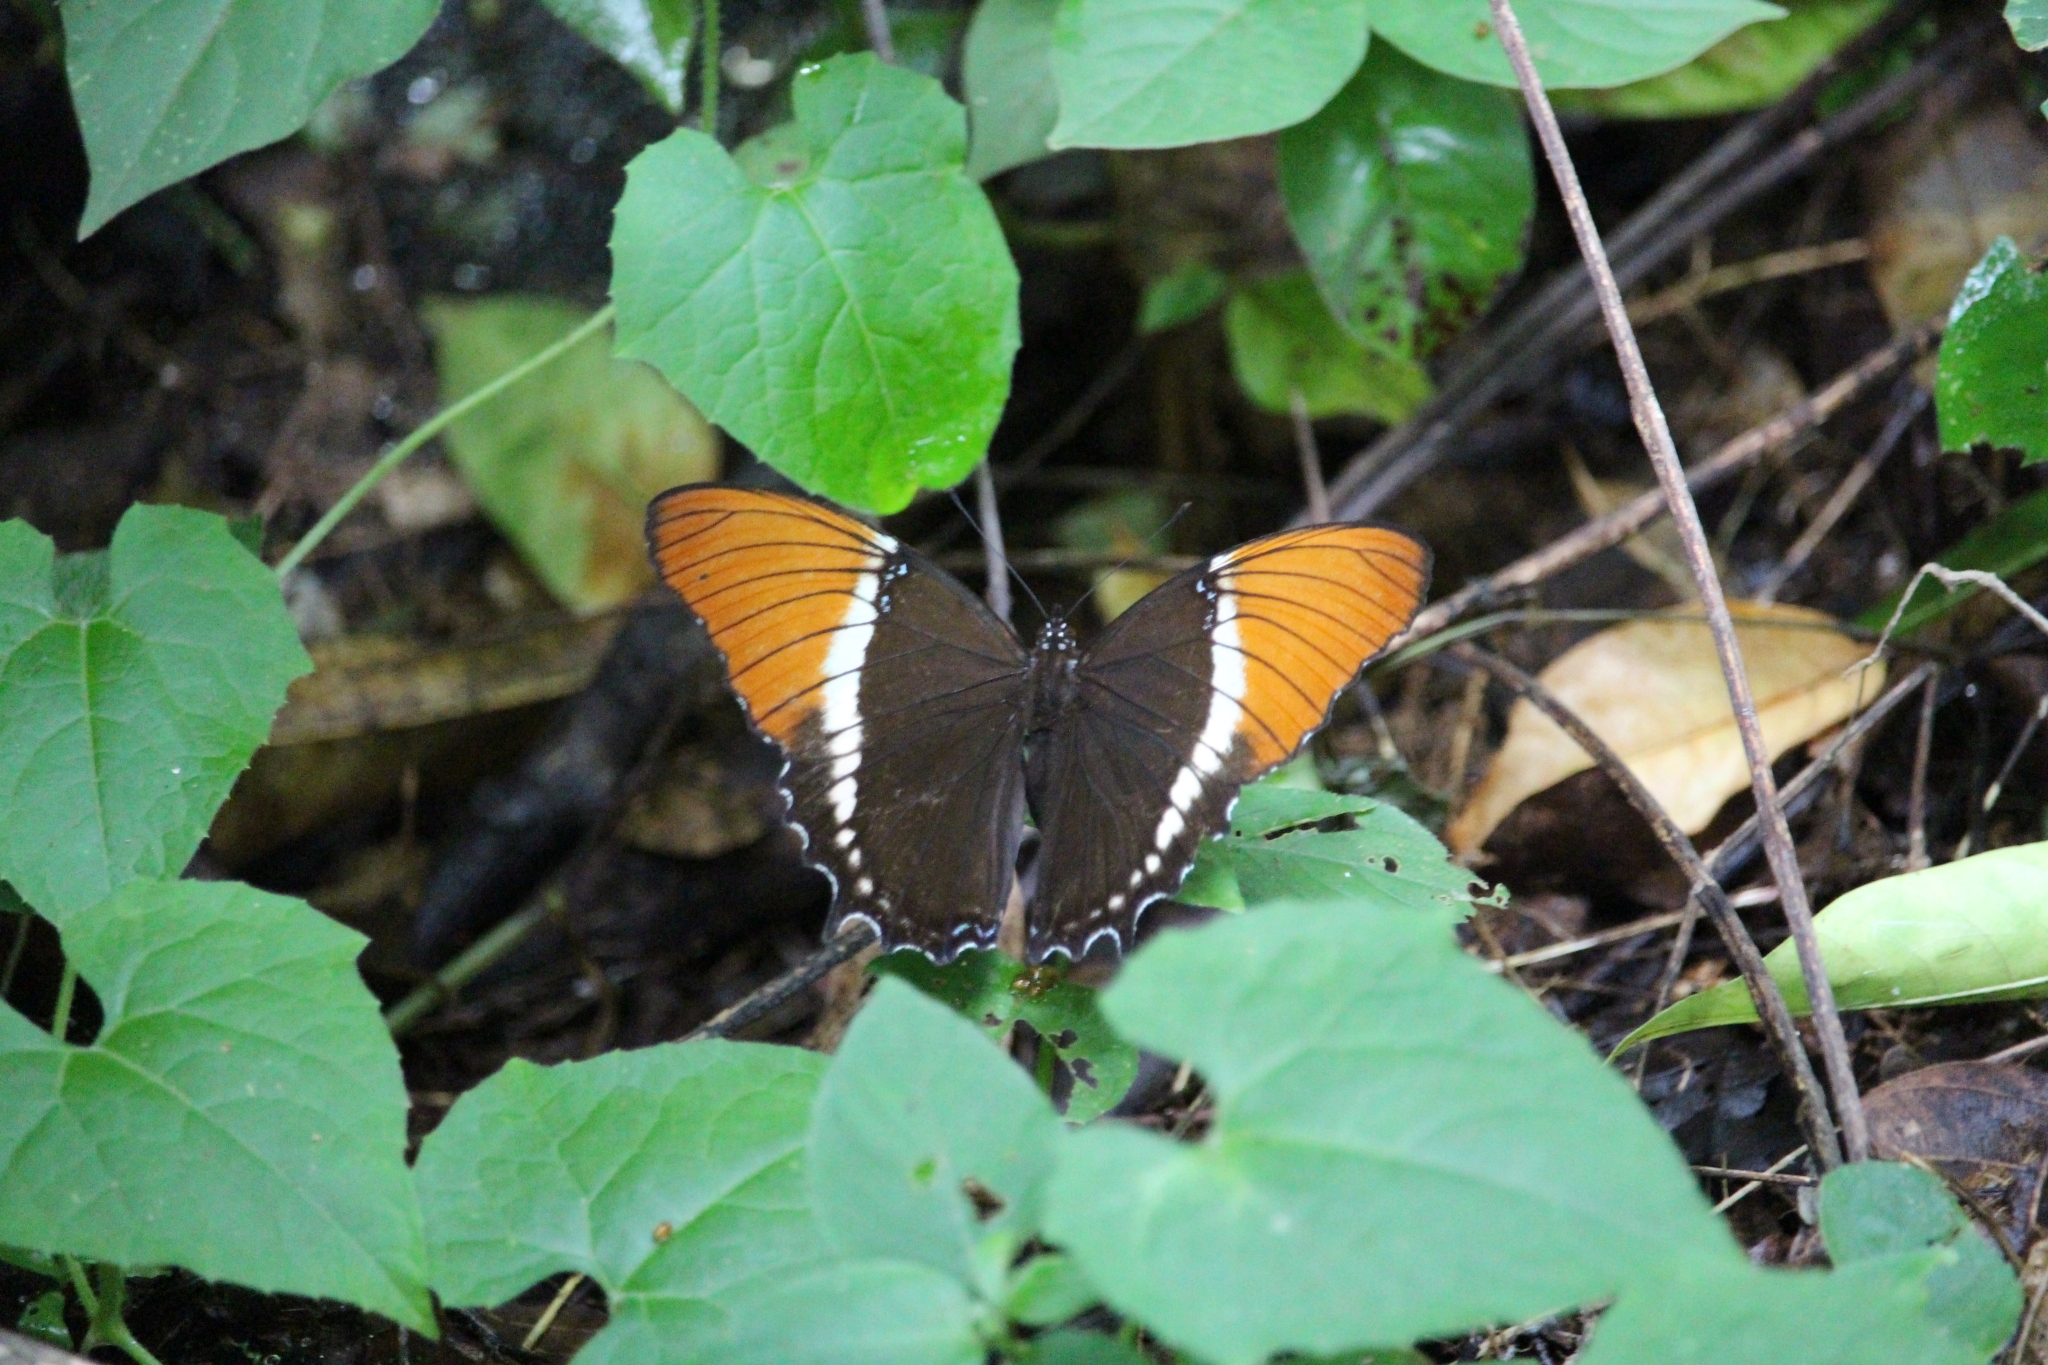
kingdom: Animalia
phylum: Arthropoda
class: Insecta
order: Lepidoptera
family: Nymphalidae
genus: Siproeta
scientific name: Siproeta epaphus
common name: Rusty-tipped page
